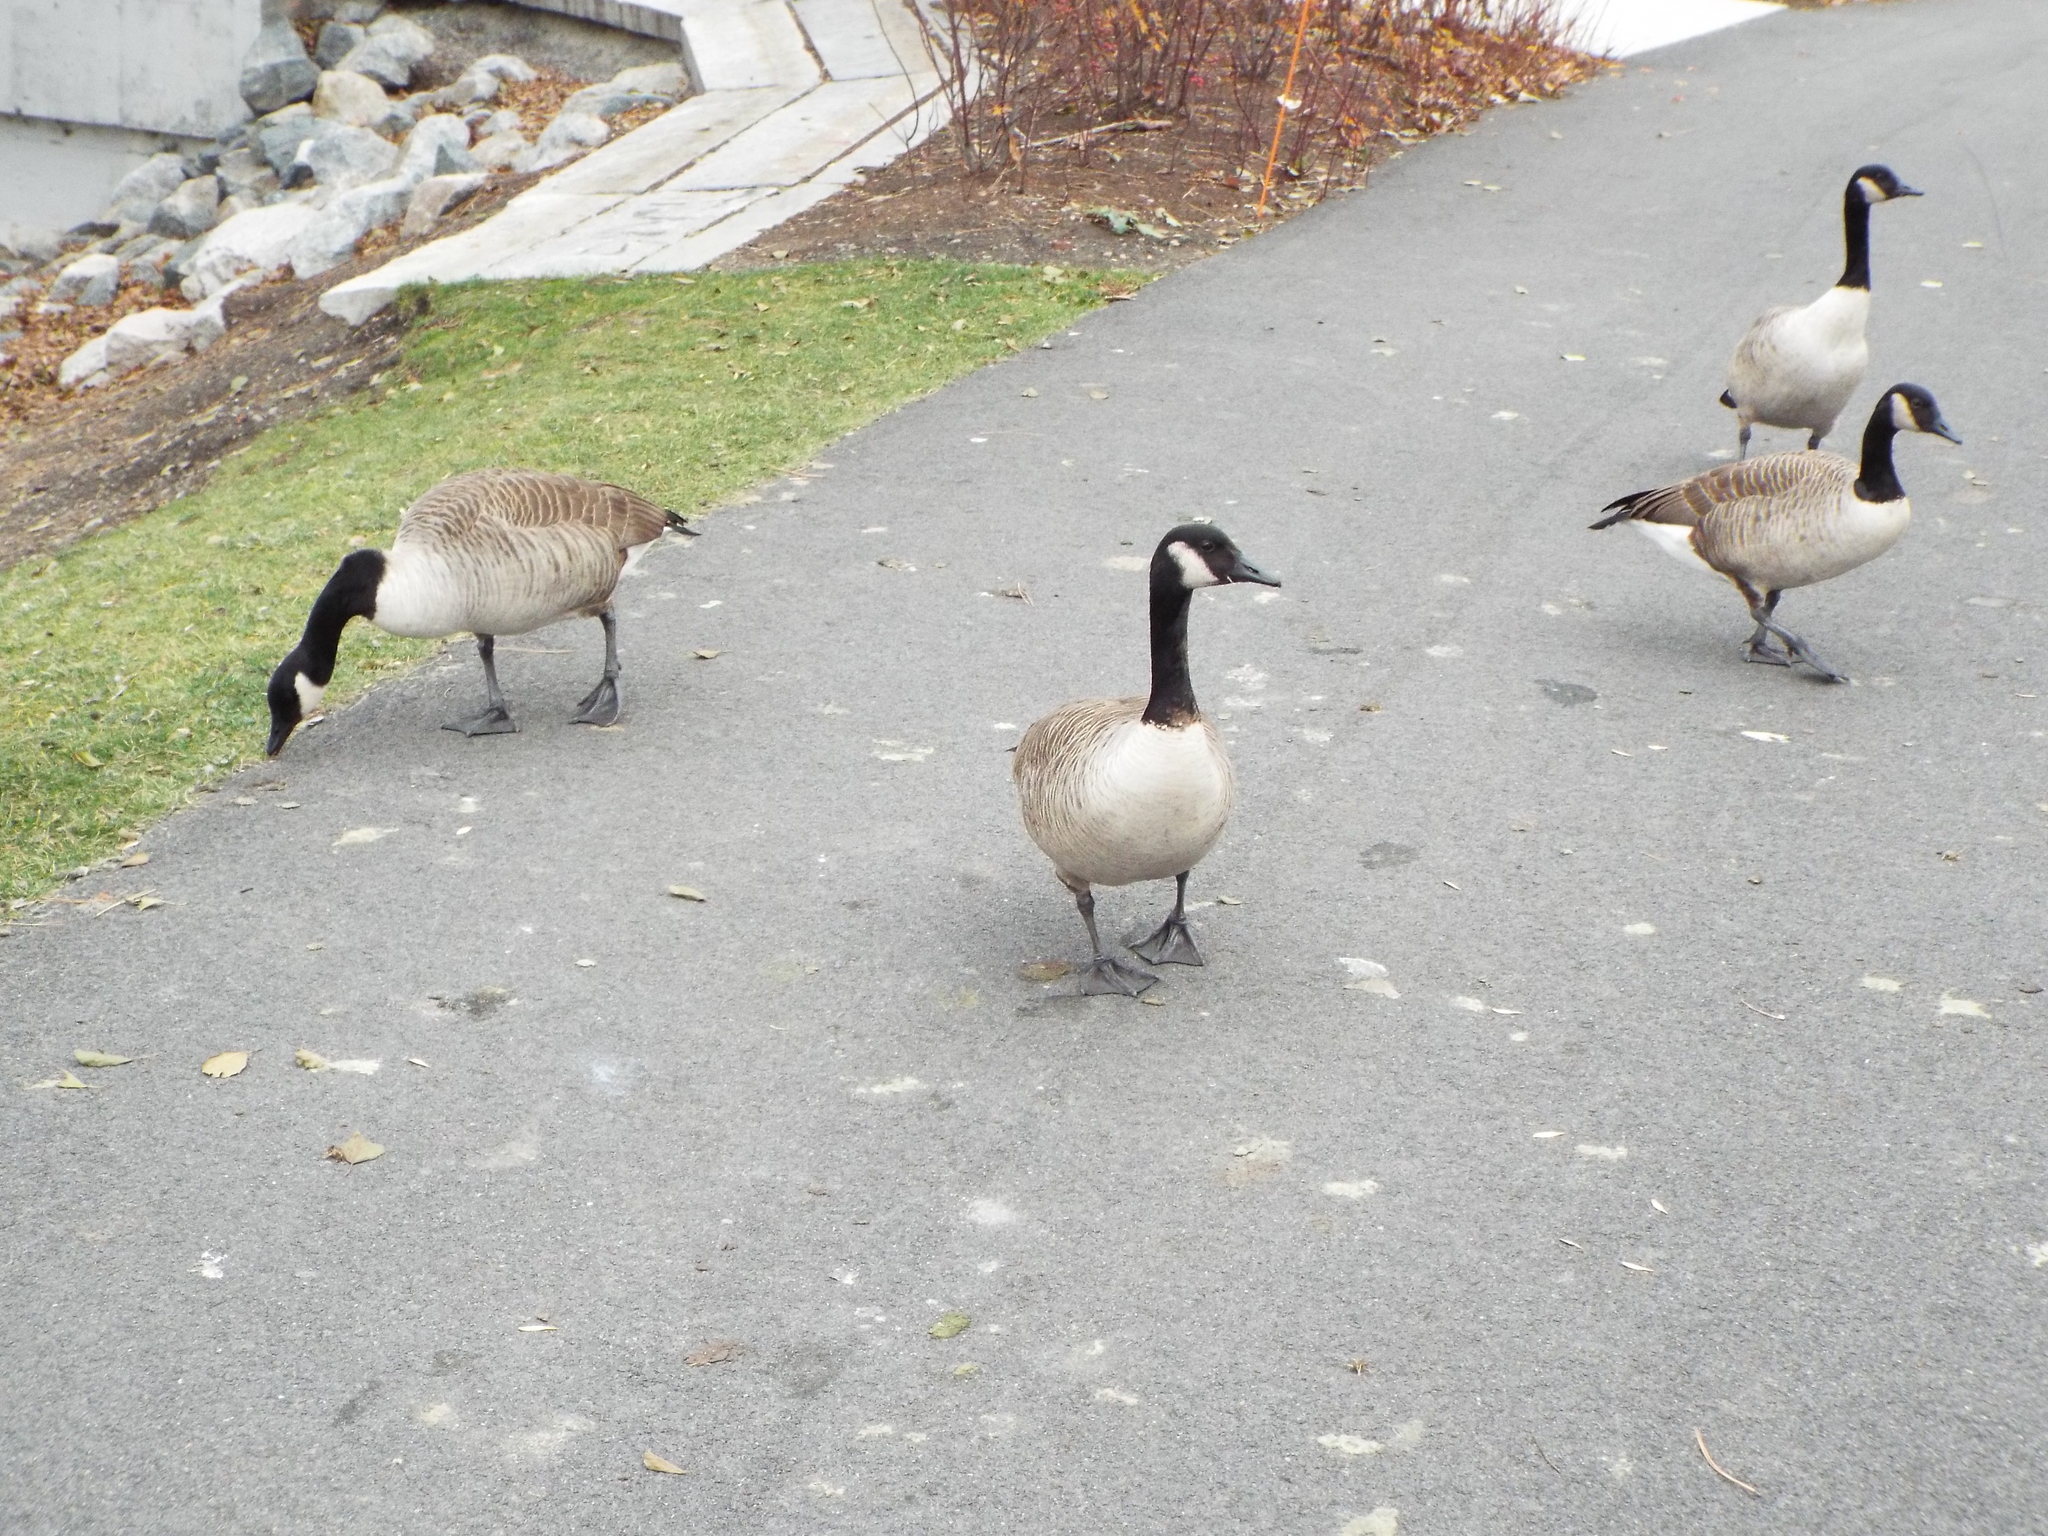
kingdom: Animalia
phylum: Chordata
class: Aves
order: Anseriformes
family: Anatidae
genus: Branta
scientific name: Branta canadensis
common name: Canada goose
